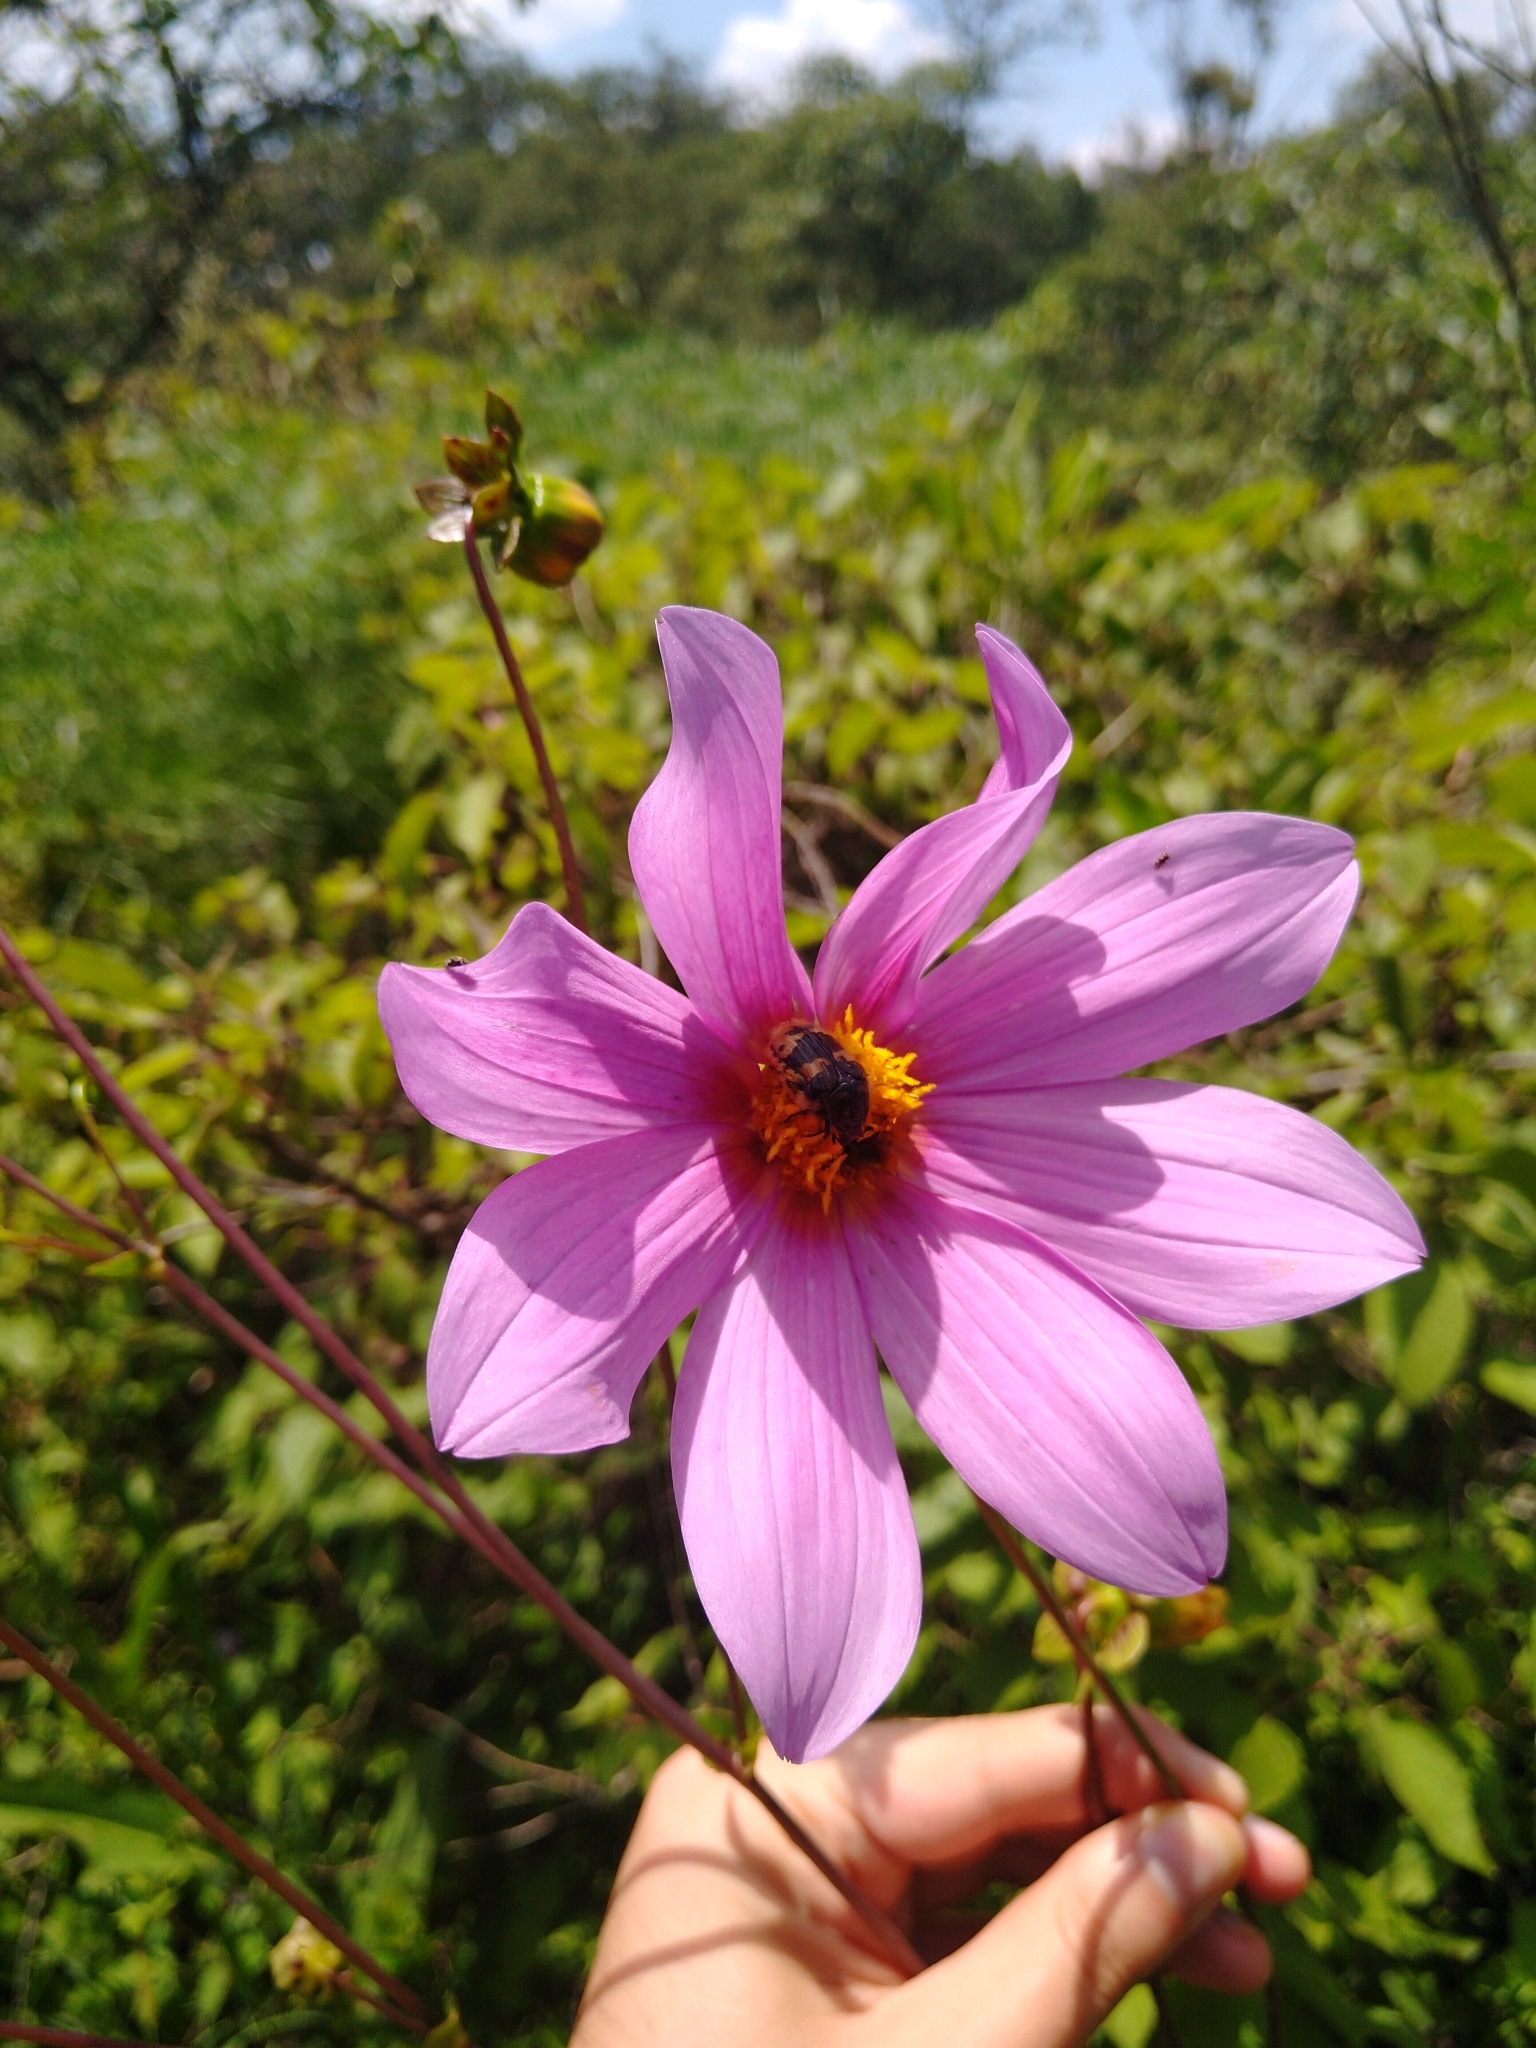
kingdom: Animalia
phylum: Arthropoda
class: Insecta
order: Coleoptera
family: Scarabaeidae
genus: Euphoria
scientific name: Euphoria basalis
